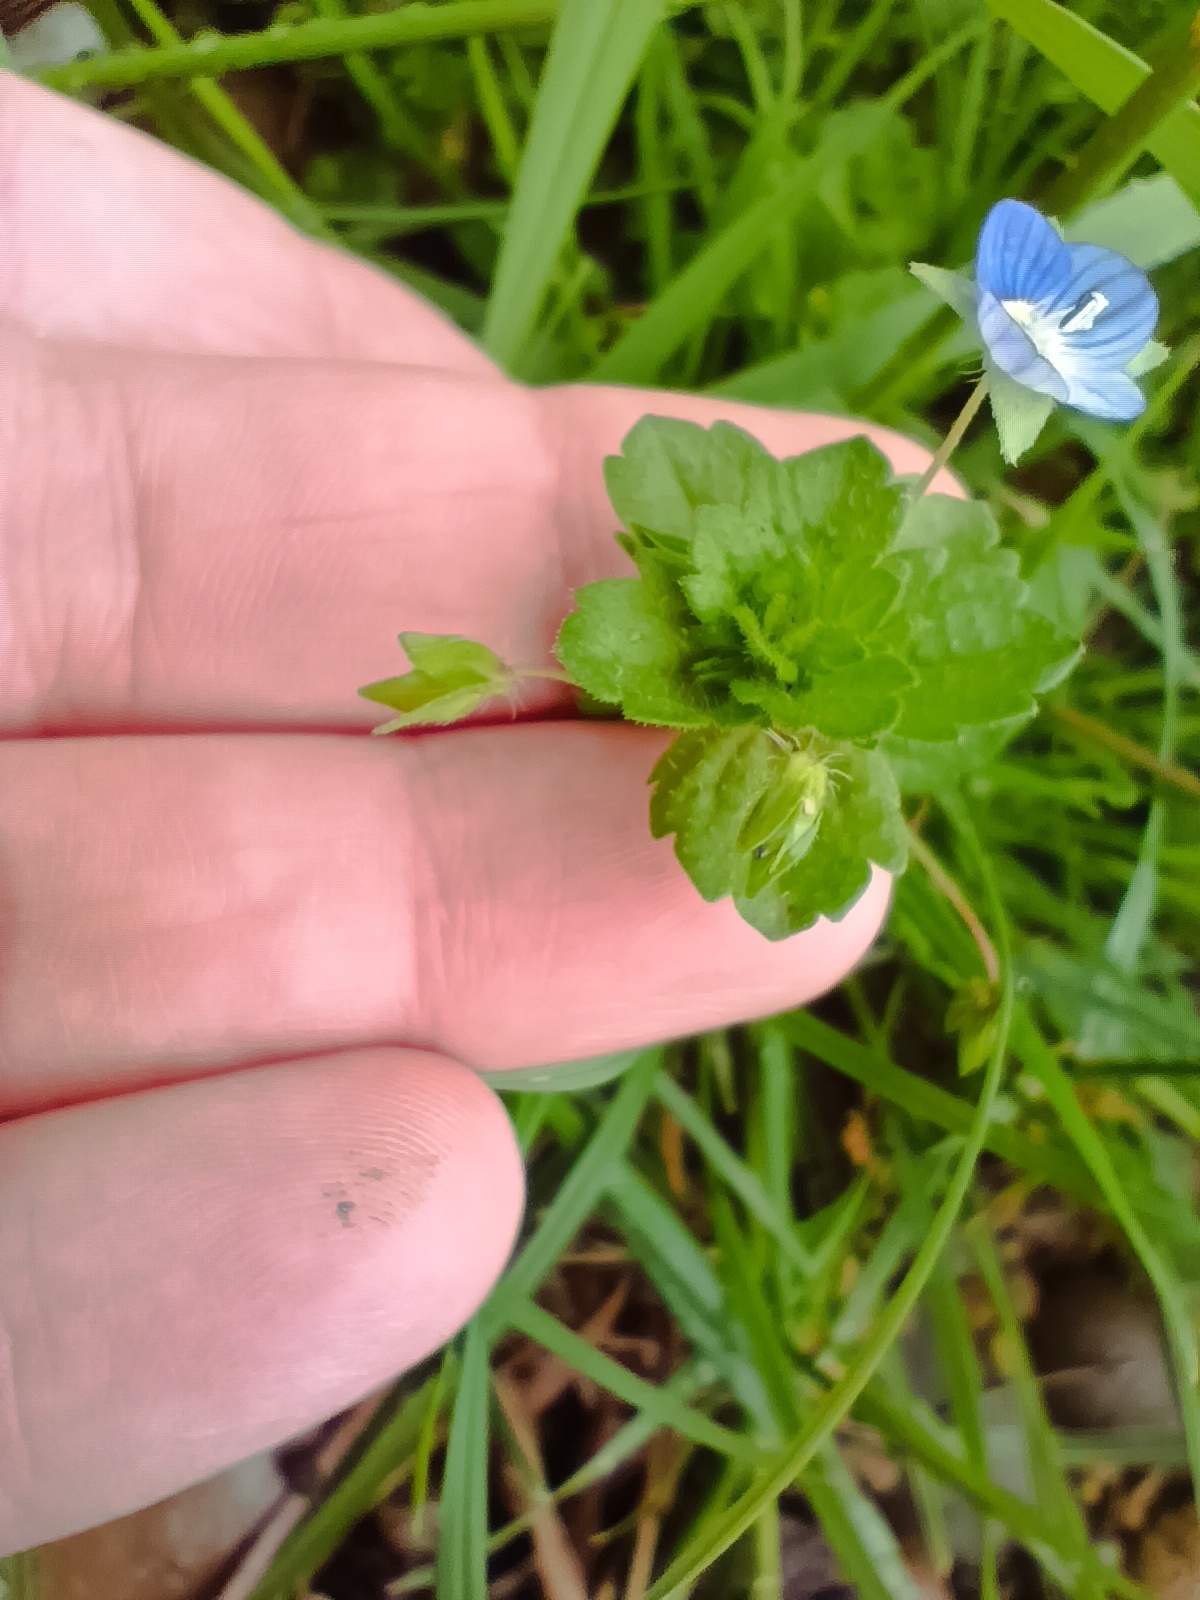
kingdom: Plantae
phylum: Tracheophyta
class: Magnoliopsida
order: Lamiales
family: Plantaginaceae
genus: Veronica
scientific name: Veronica persica
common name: Common field-speedwell
